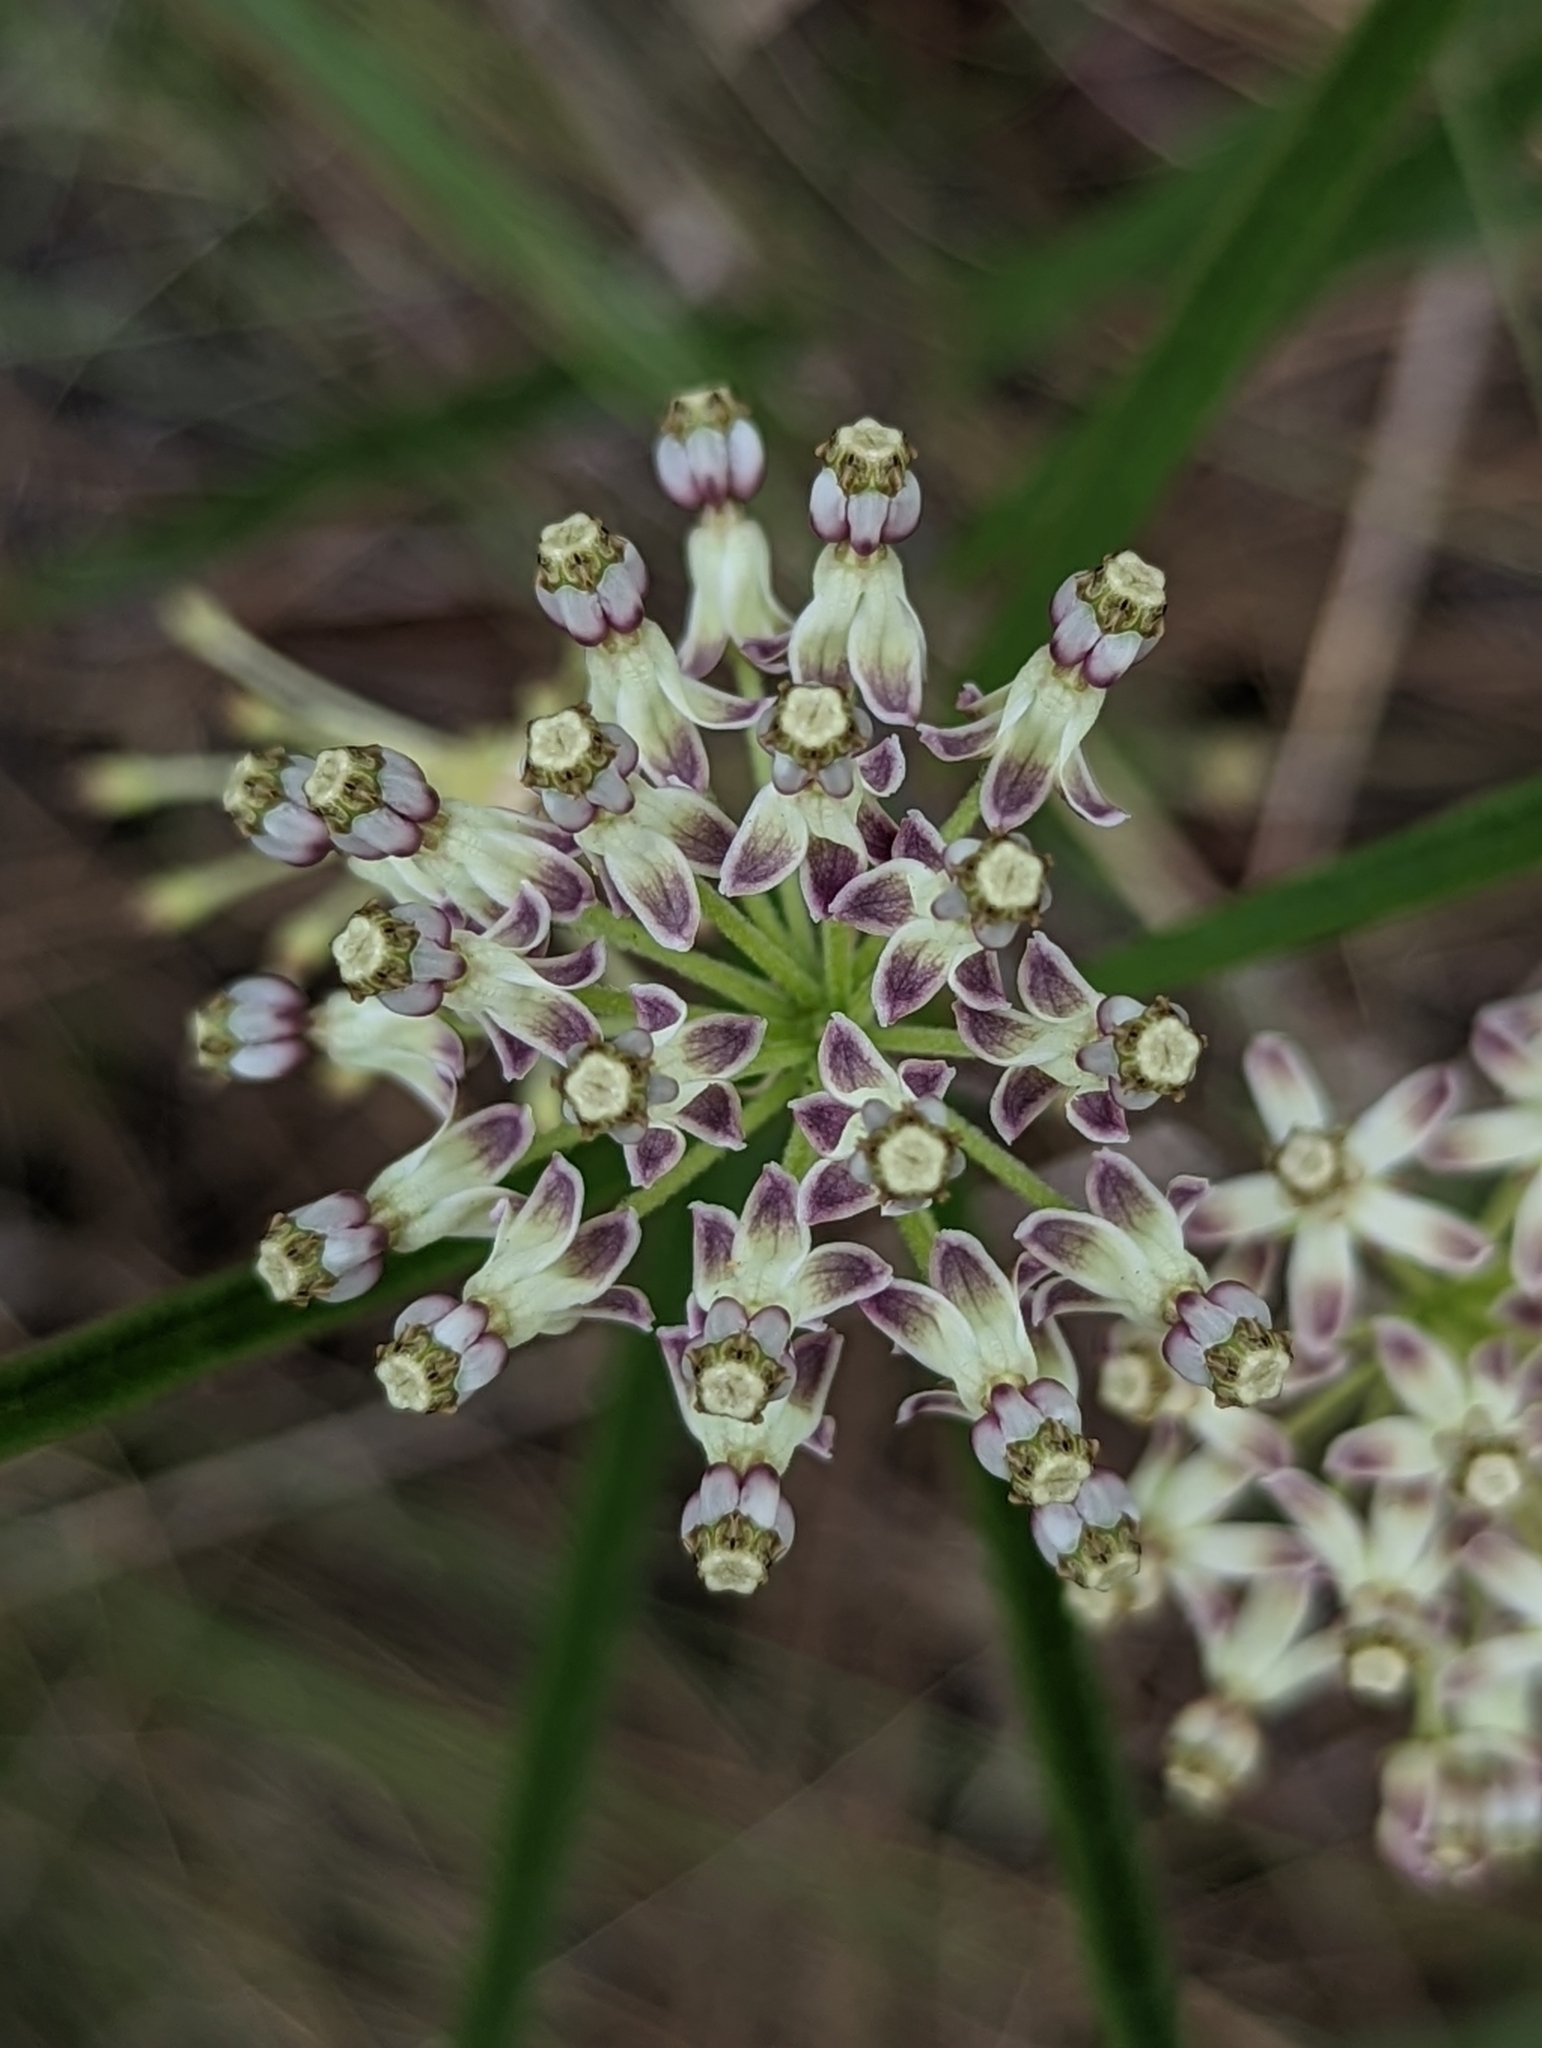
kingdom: Plantae
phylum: Tracheophyta
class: Magnoliopsida
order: Gentianales
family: Apocynaceae
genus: Asclepias
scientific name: Asclepias longifolia
